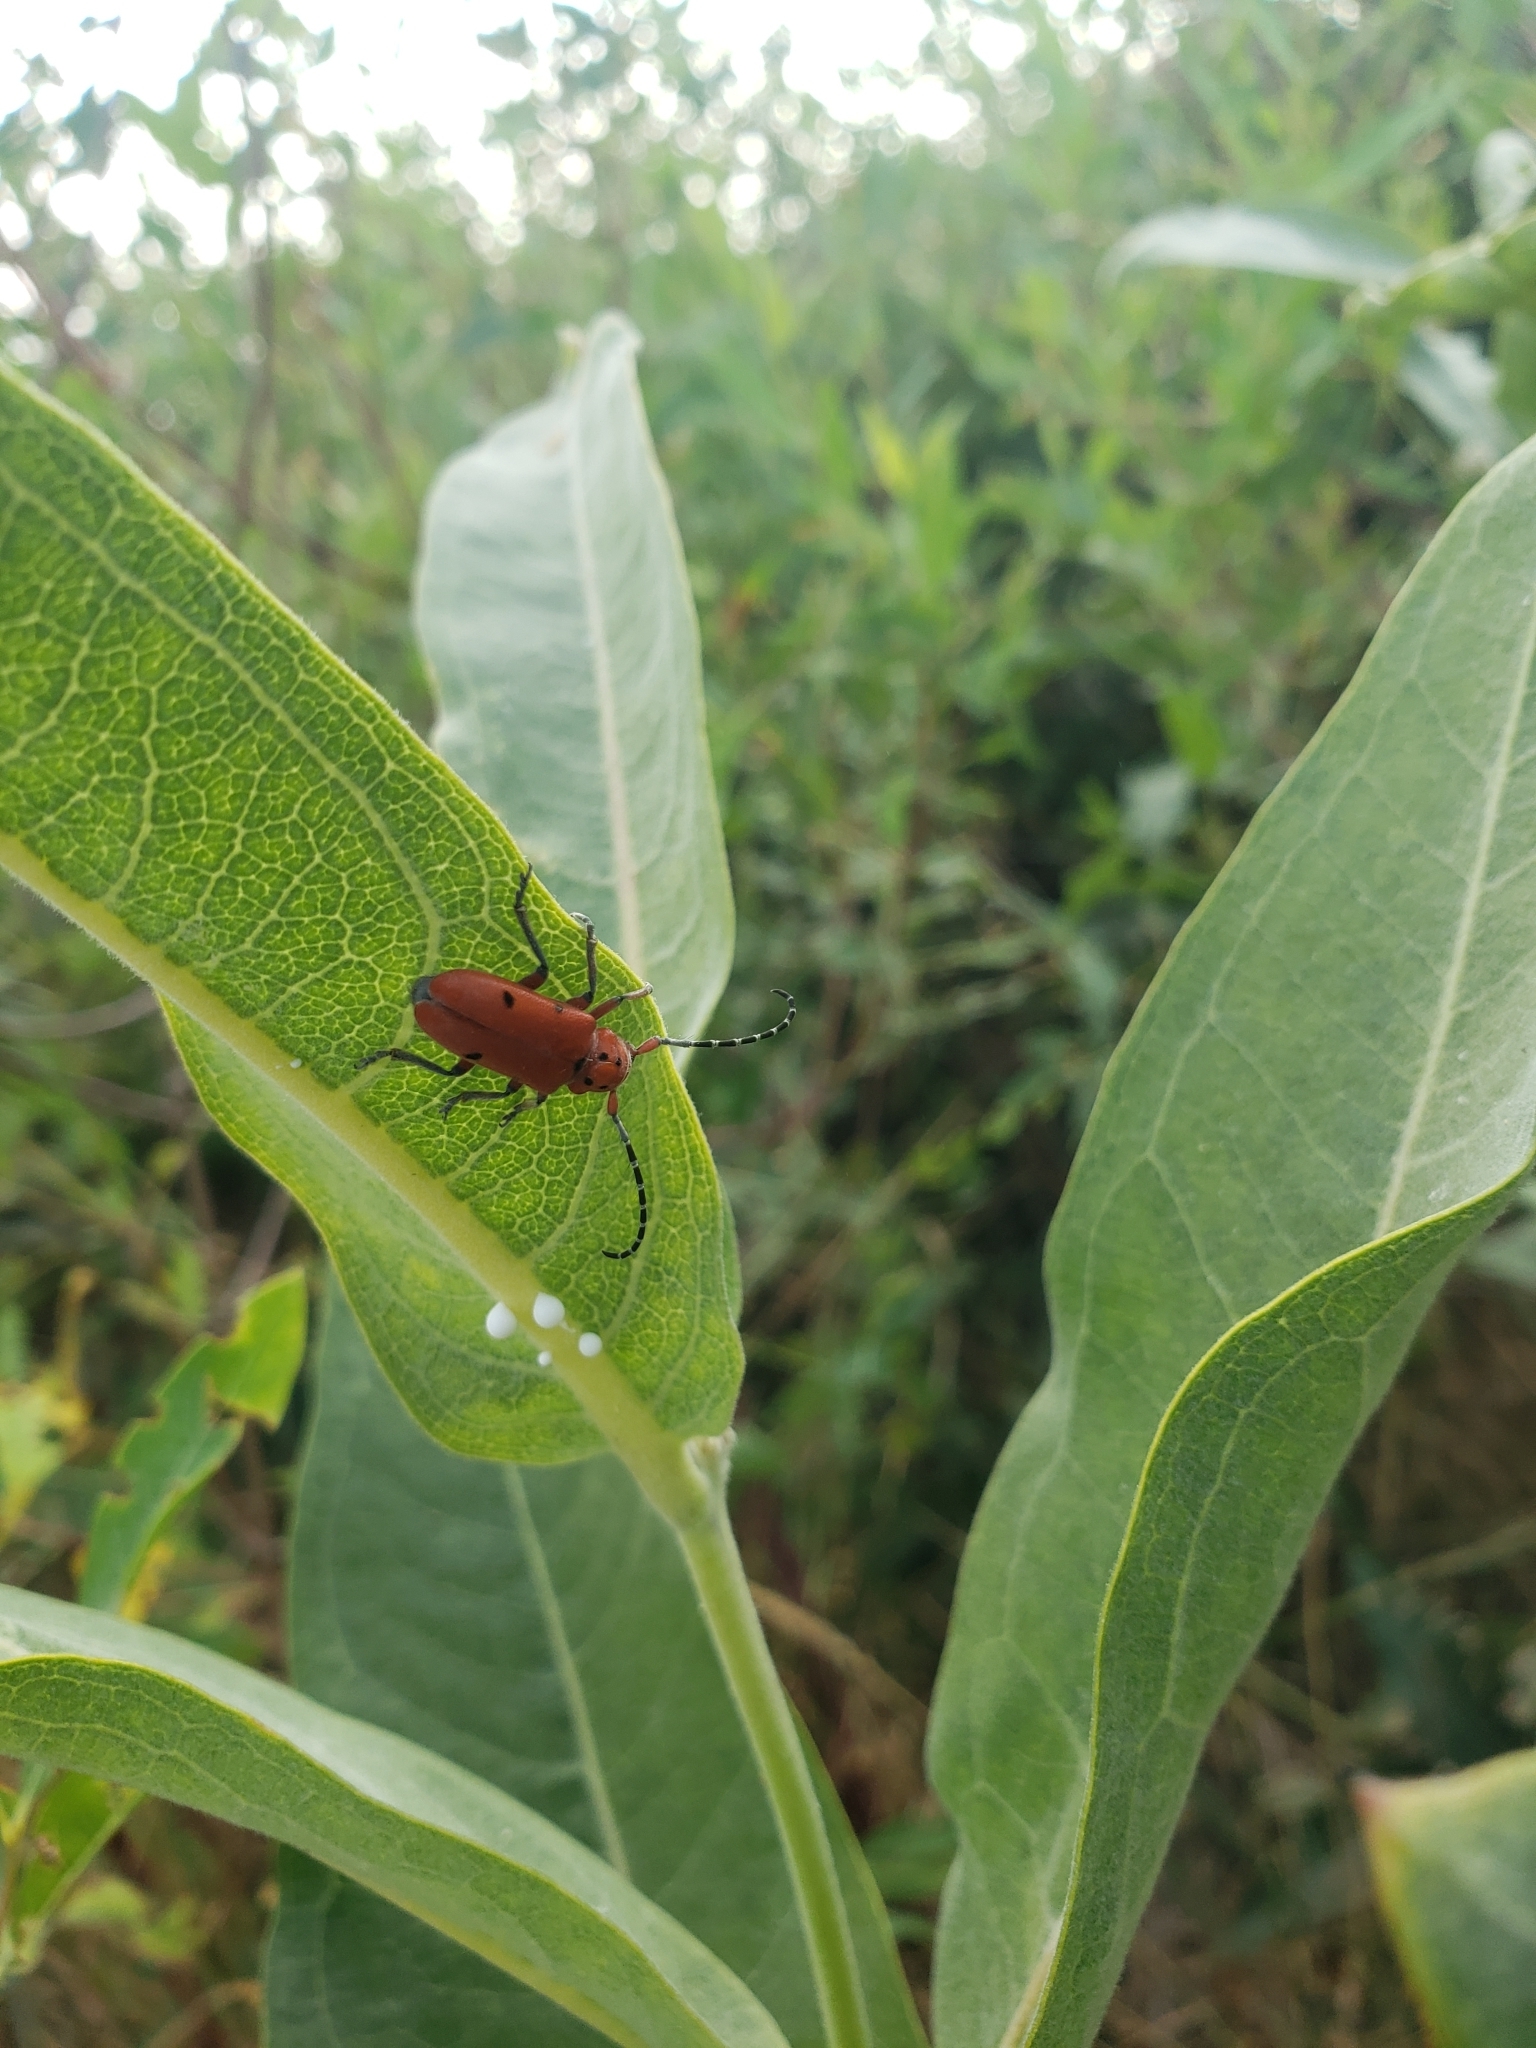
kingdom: Animalia
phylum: Arthropoda
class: Insecta
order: Coleoptera
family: Cerambycidae
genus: Tetraopes
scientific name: Tetraopes femoratus
